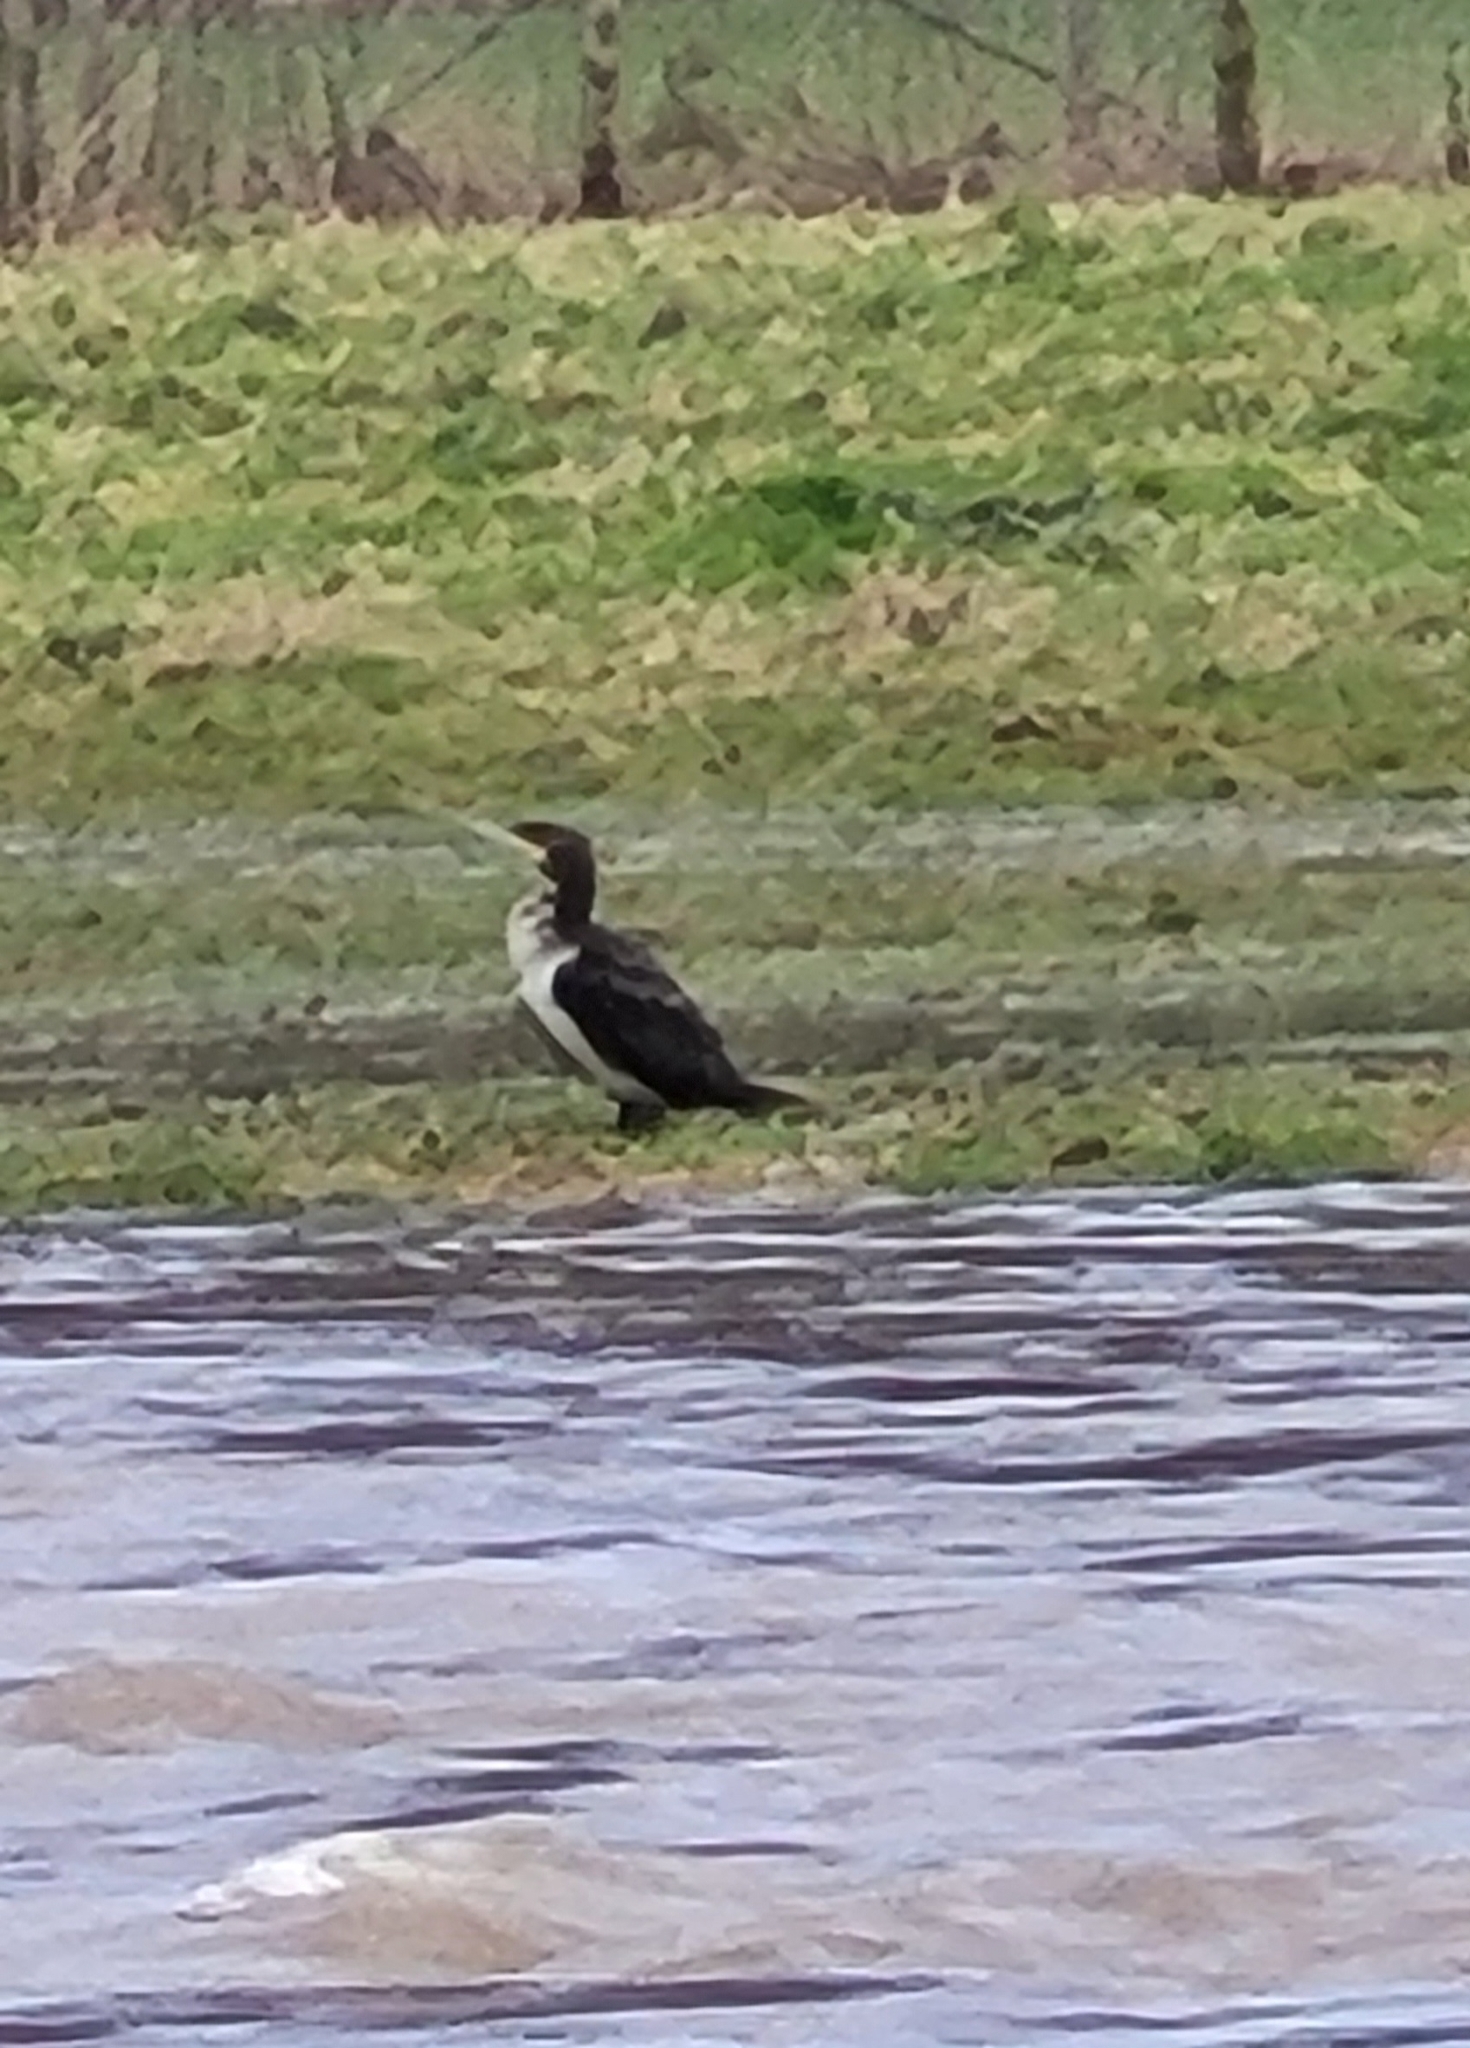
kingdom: Animalia
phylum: Chordata
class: Aves
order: Suliformes
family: Phalacrocoracidae
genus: Phalacrocorax
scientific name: Phalacrocorax carbo
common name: Great cormorant
